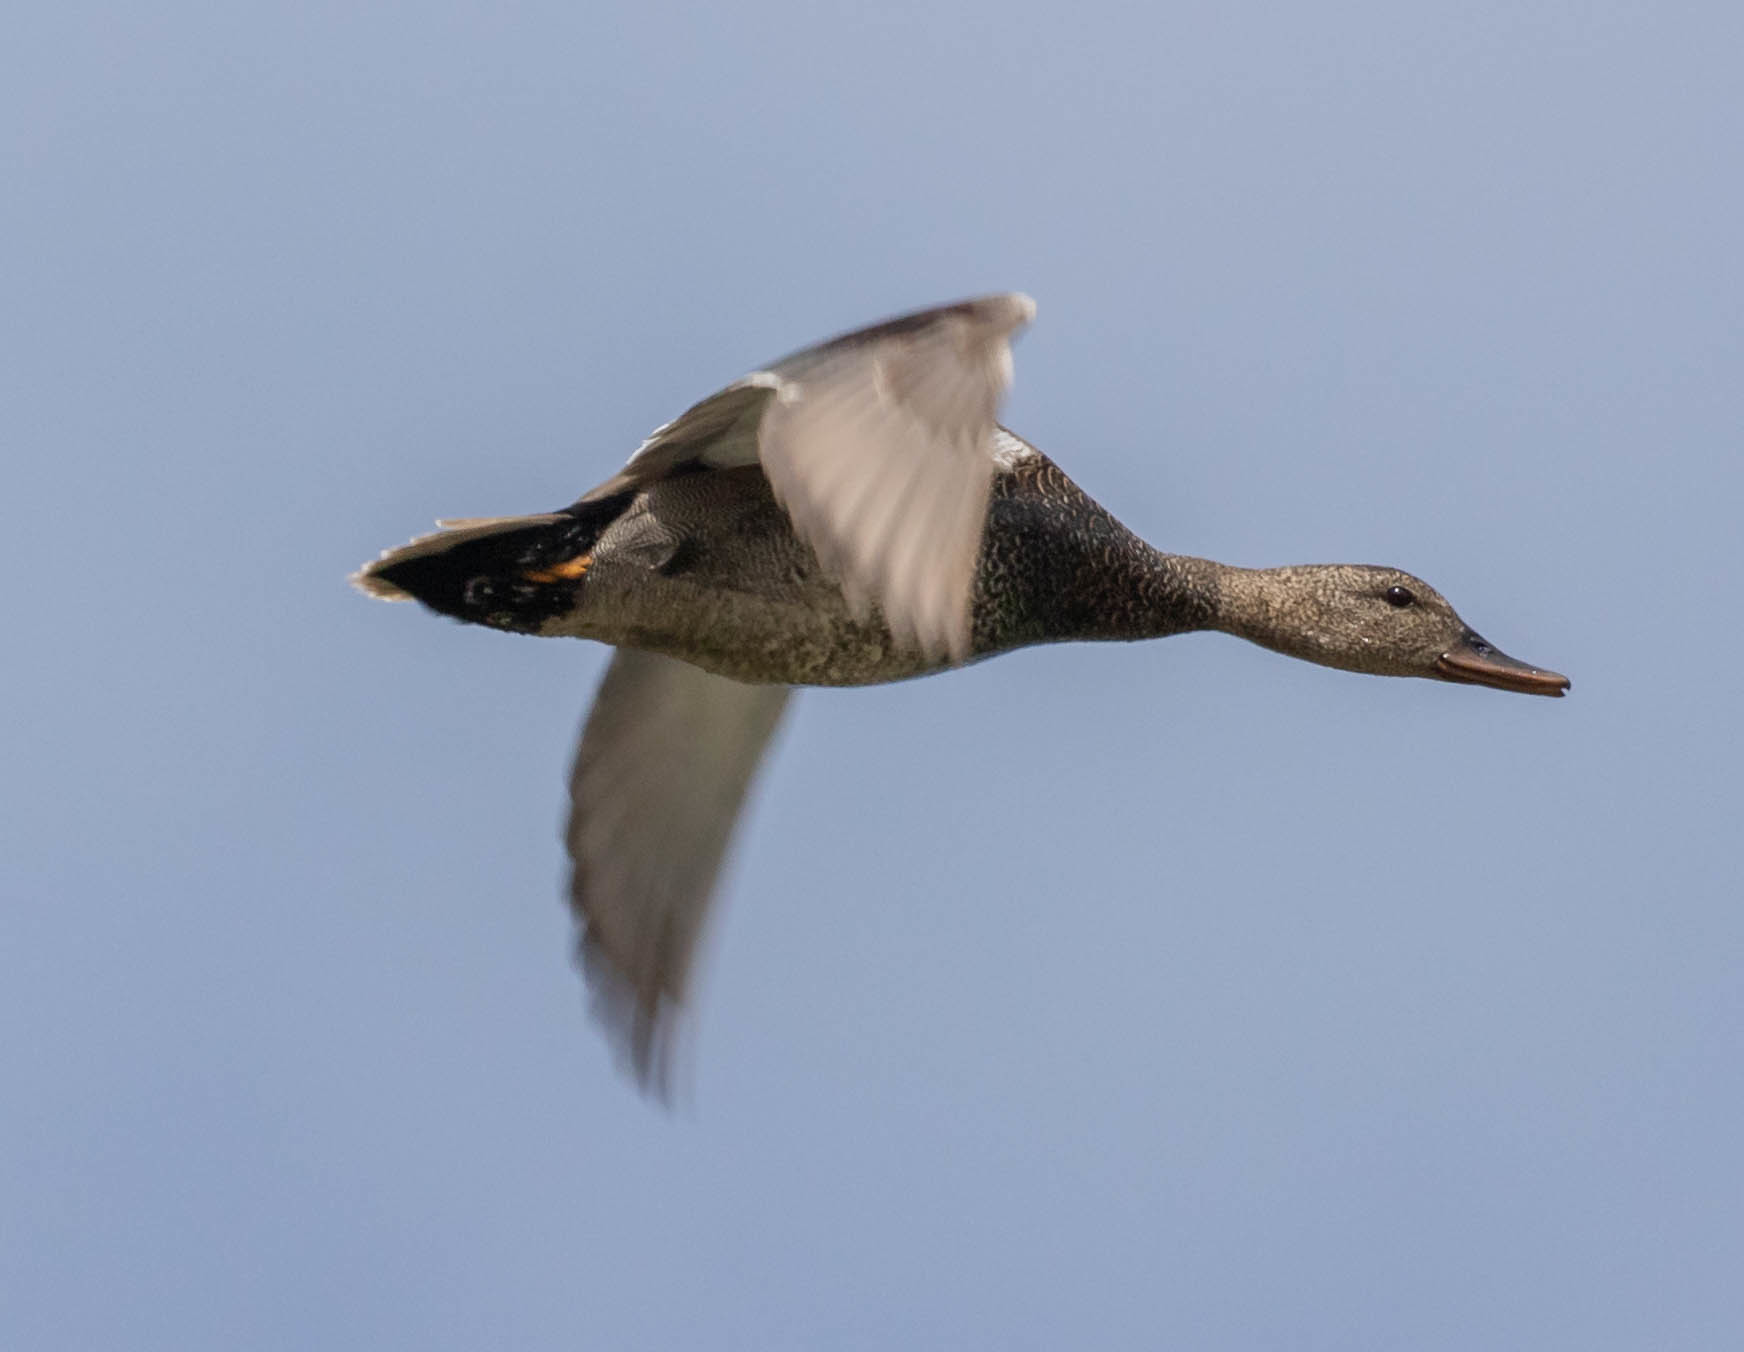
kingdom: Animalia
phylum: Chordata
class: Aves
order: Anseriformes
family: Anatidae
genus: Mareca
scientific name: Mareca strepera
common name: Gadwall
